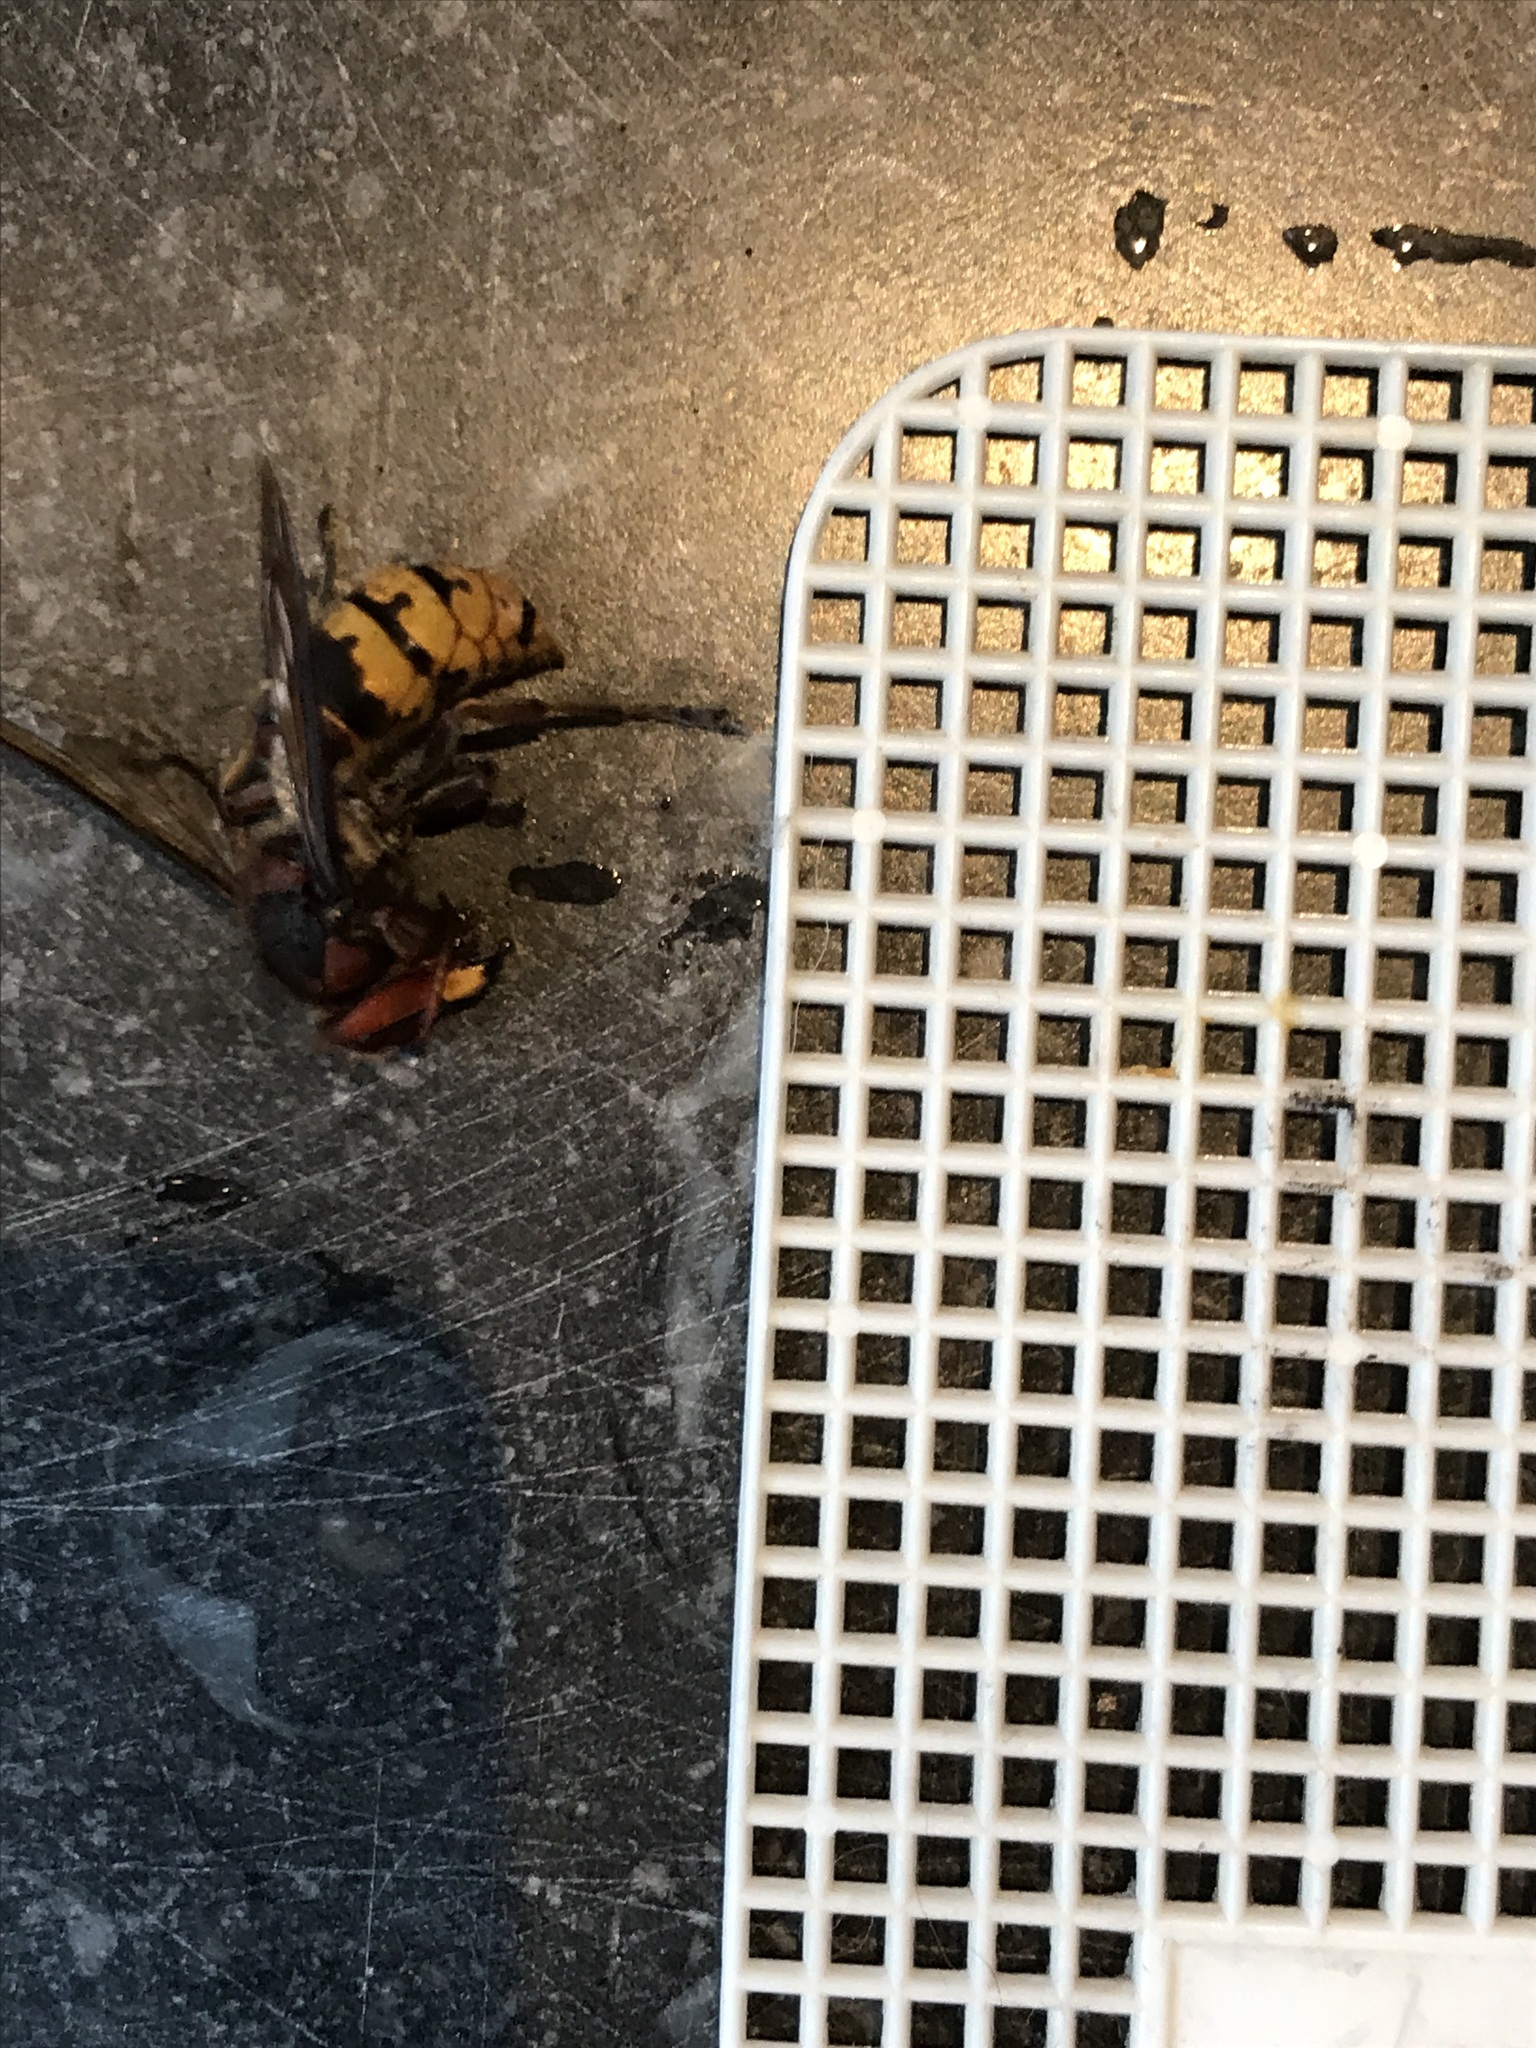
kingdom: Animalia
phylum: Arthropoda
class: Insecta
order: Hymenoptera
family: Vespidae
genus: Vespa
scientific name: Vespa crabro
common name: Hornet
